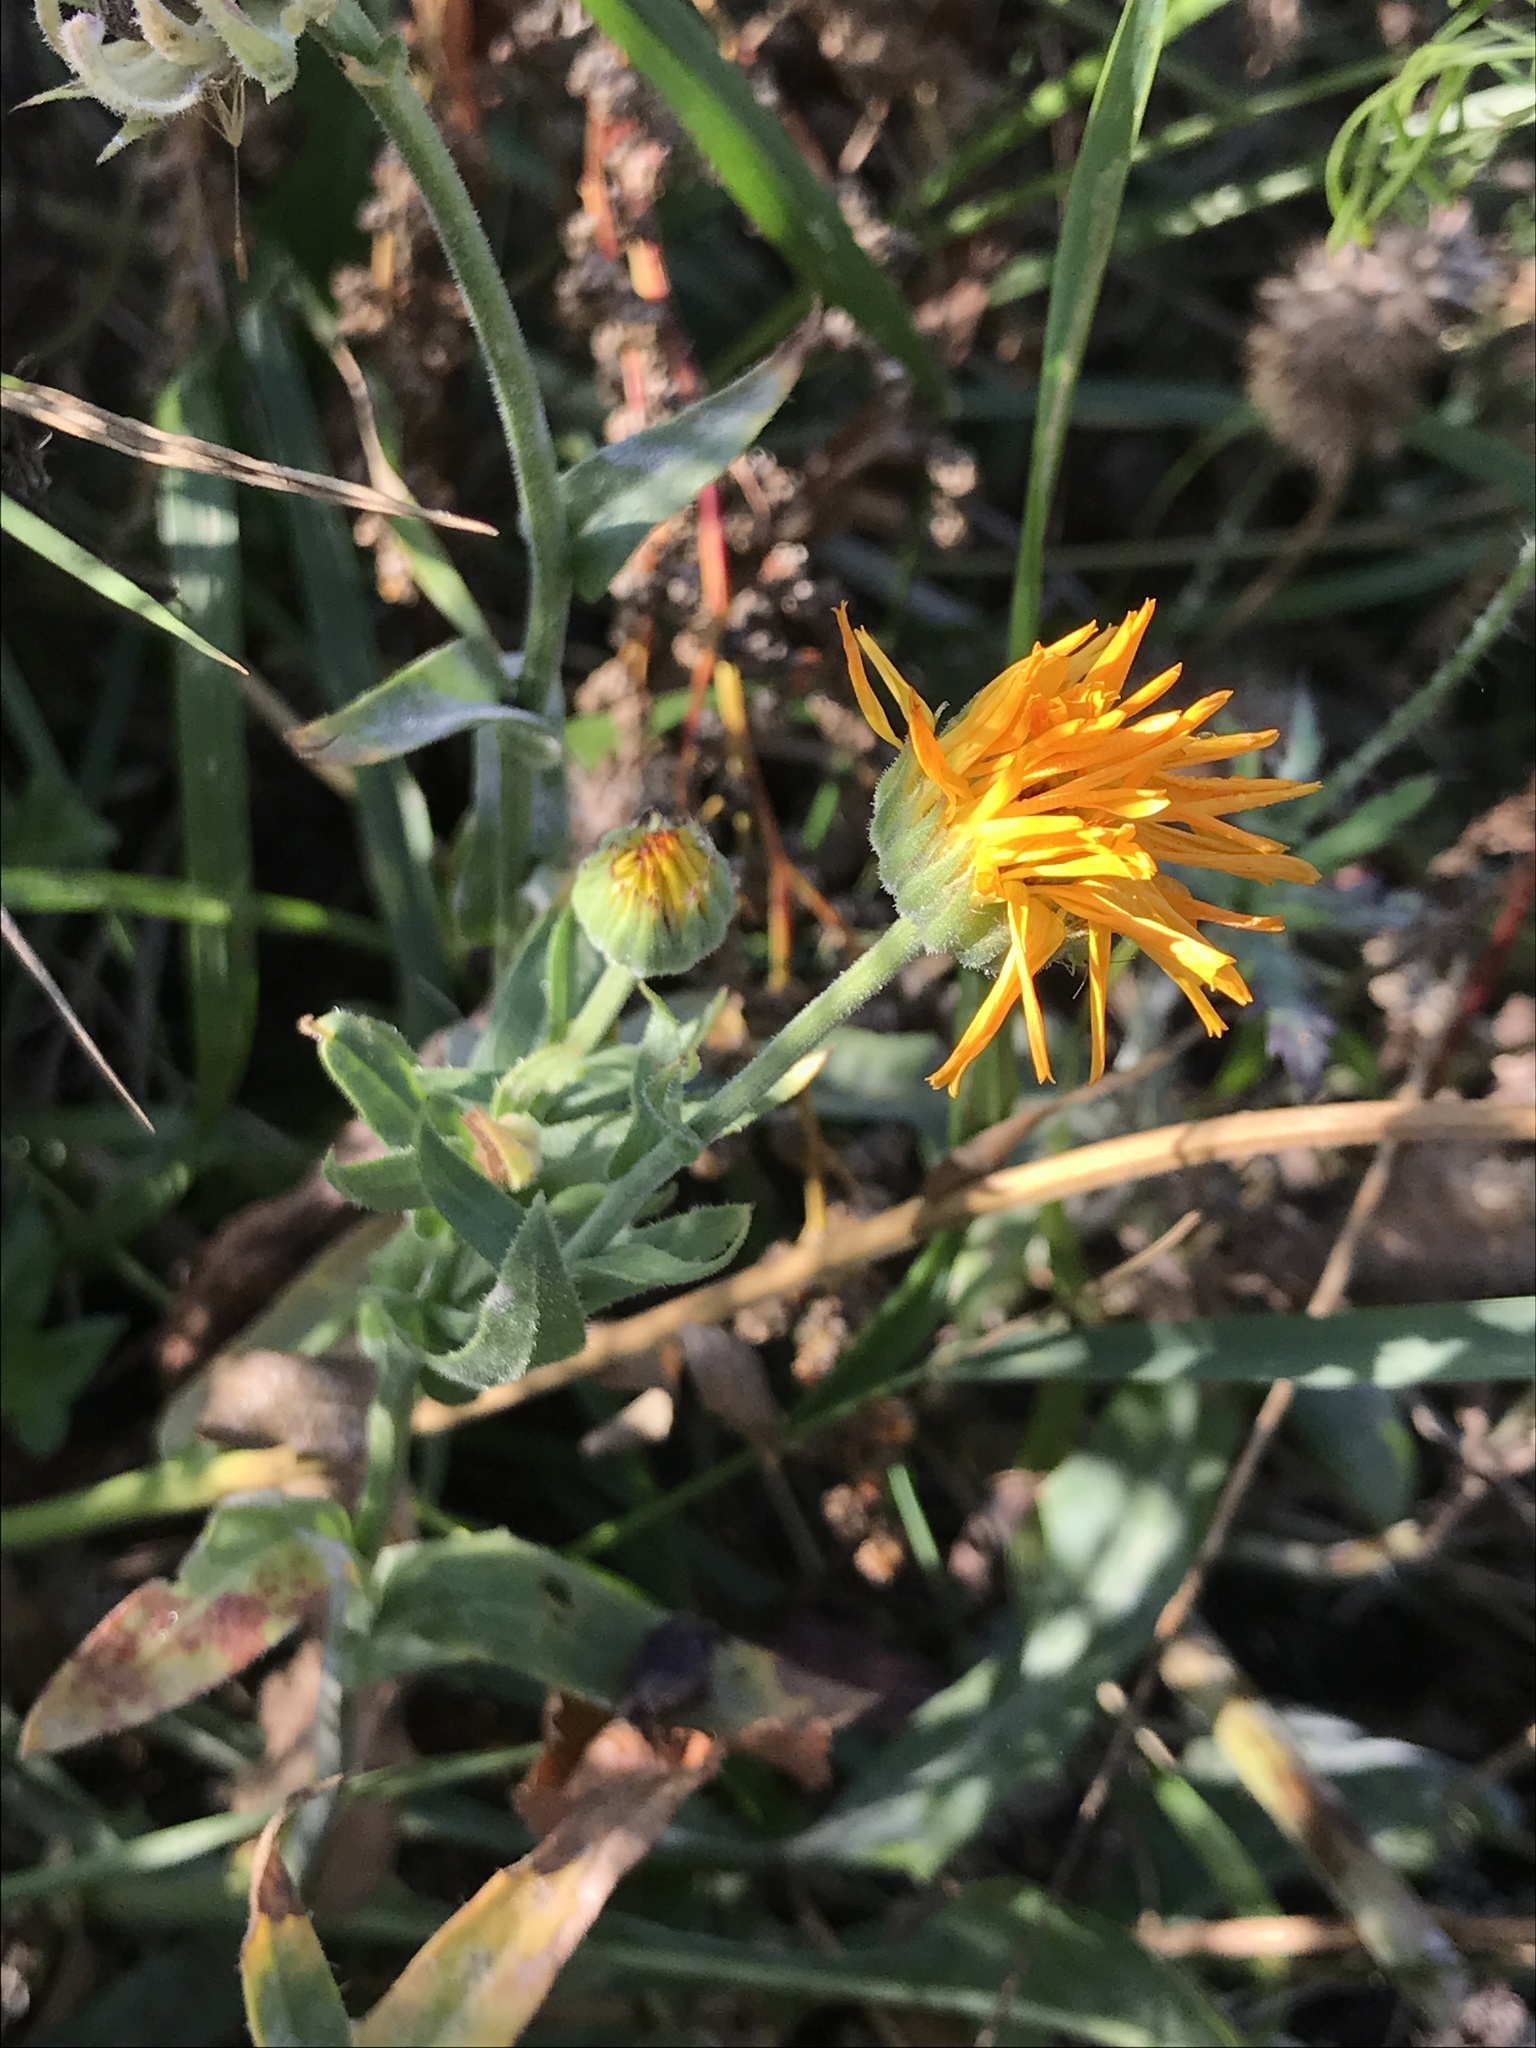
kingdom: Plantae
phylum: Tracheophyta
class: Magnoliopsida
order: Asterales
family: Asteraceae
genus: Calendula
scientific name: Calendula officinalis
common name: Pot marigold
